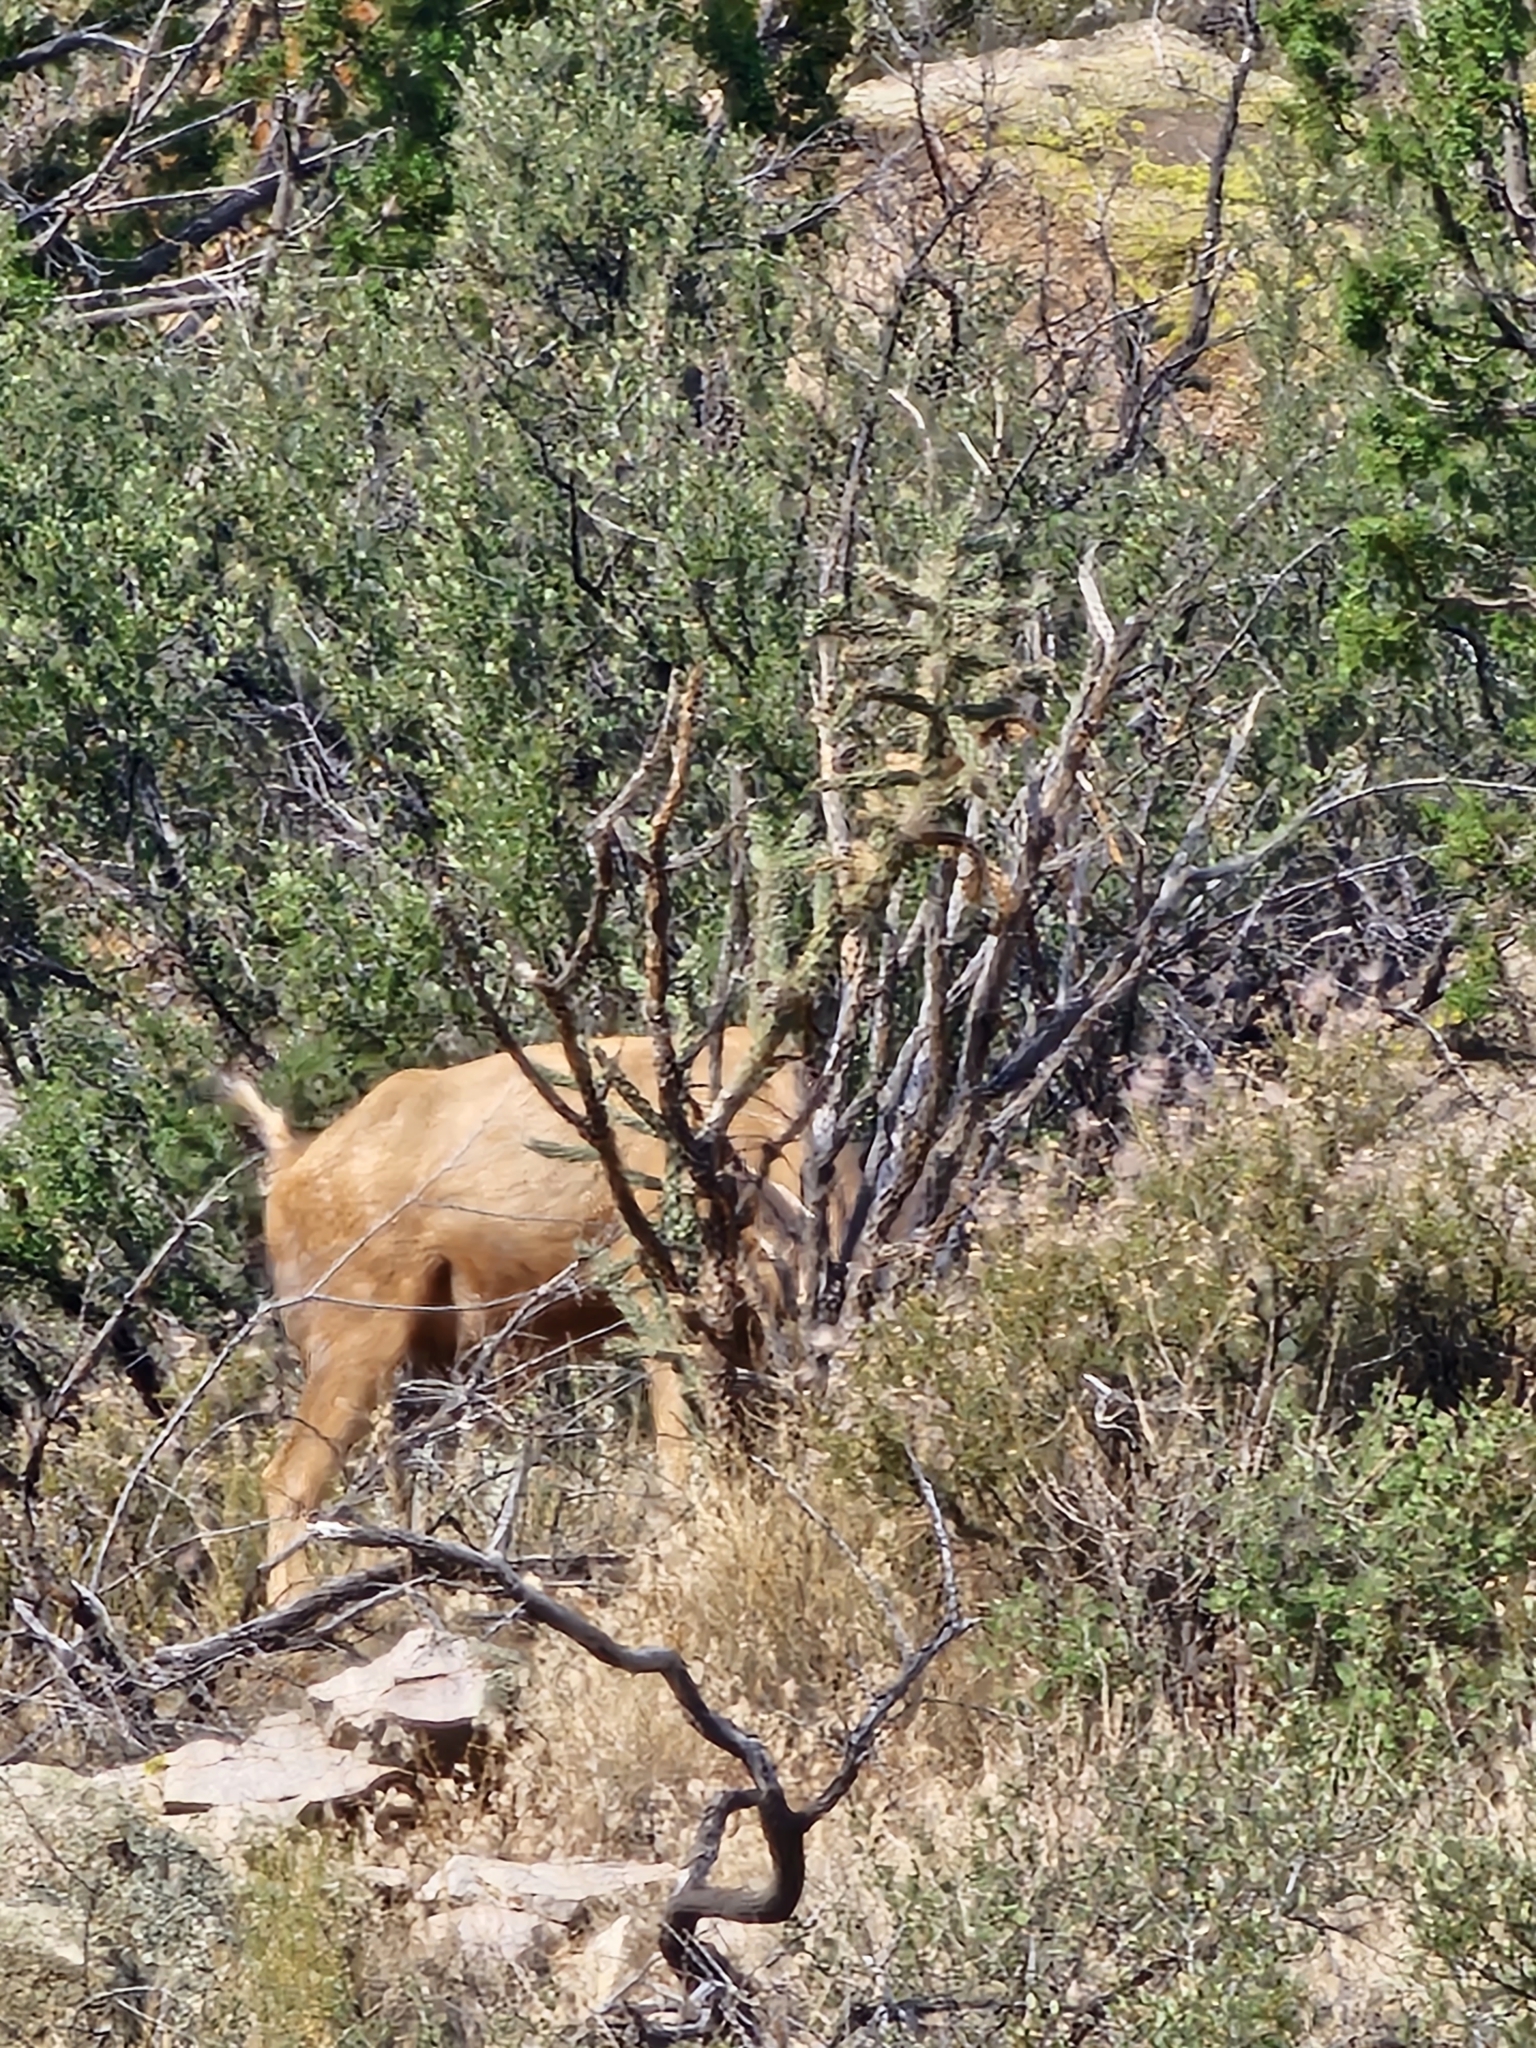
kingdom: Animalia
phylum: Chordata
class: Mammalia
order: Artiodactyla
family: Cervidae
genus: Odocoileus
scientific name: Odocoileus hemionus
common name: Mule deer
